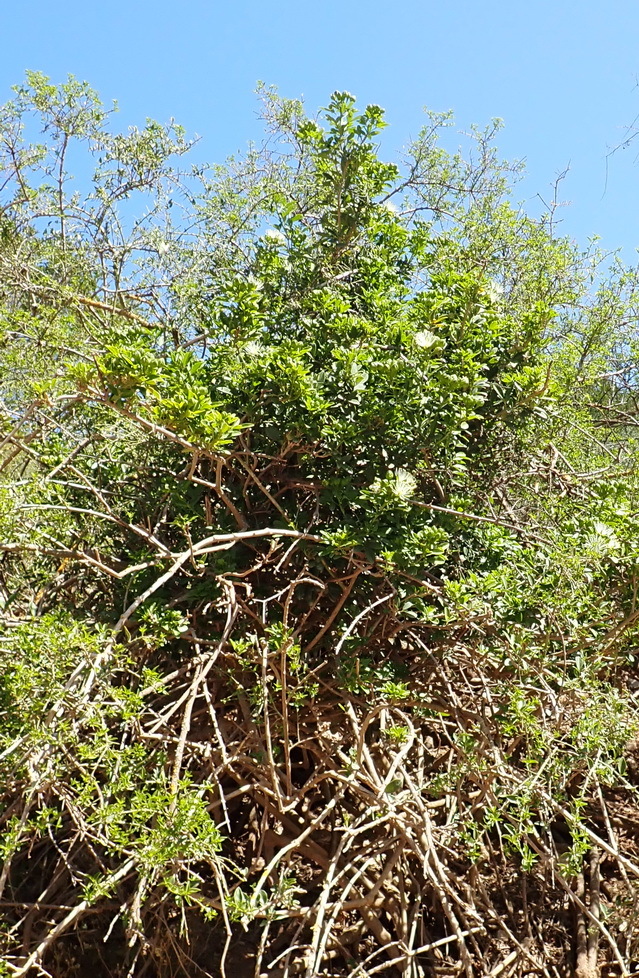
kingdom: Plantae
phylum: Tracheophyta
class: Magnoliopsida
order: Brassicales
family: Capparaceae
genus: Maerua
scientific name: Maerua cafra
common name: Bush maerua
